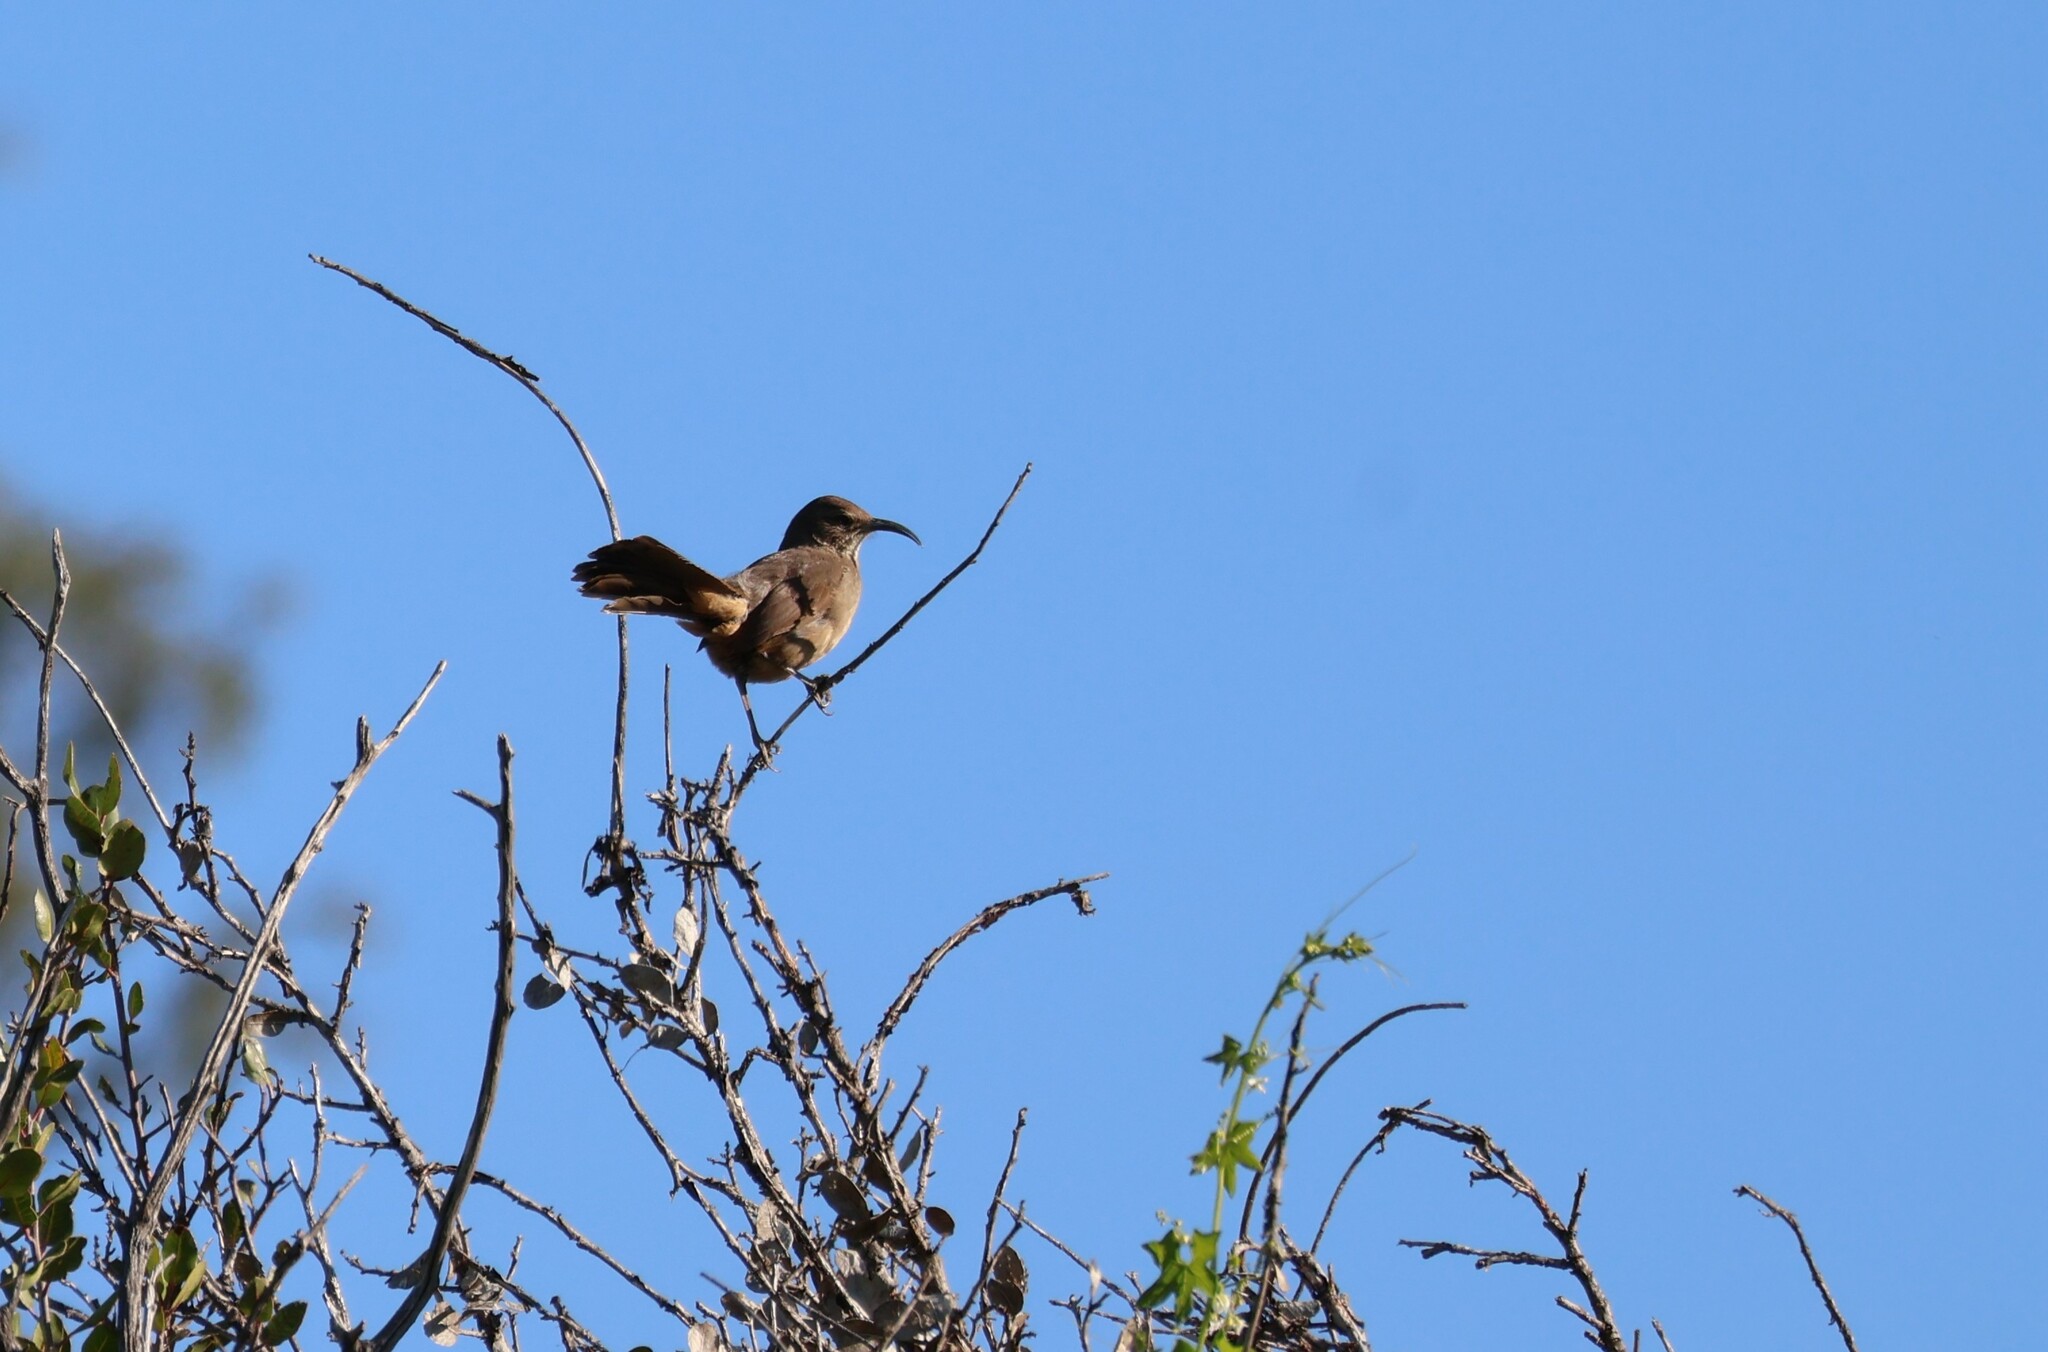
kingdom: Animalia
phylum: Chordata
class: Aves
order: Passeriformes
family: Mimidae
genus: Toxostoma
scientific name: Toxostoma redivivum
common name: California thrasher
